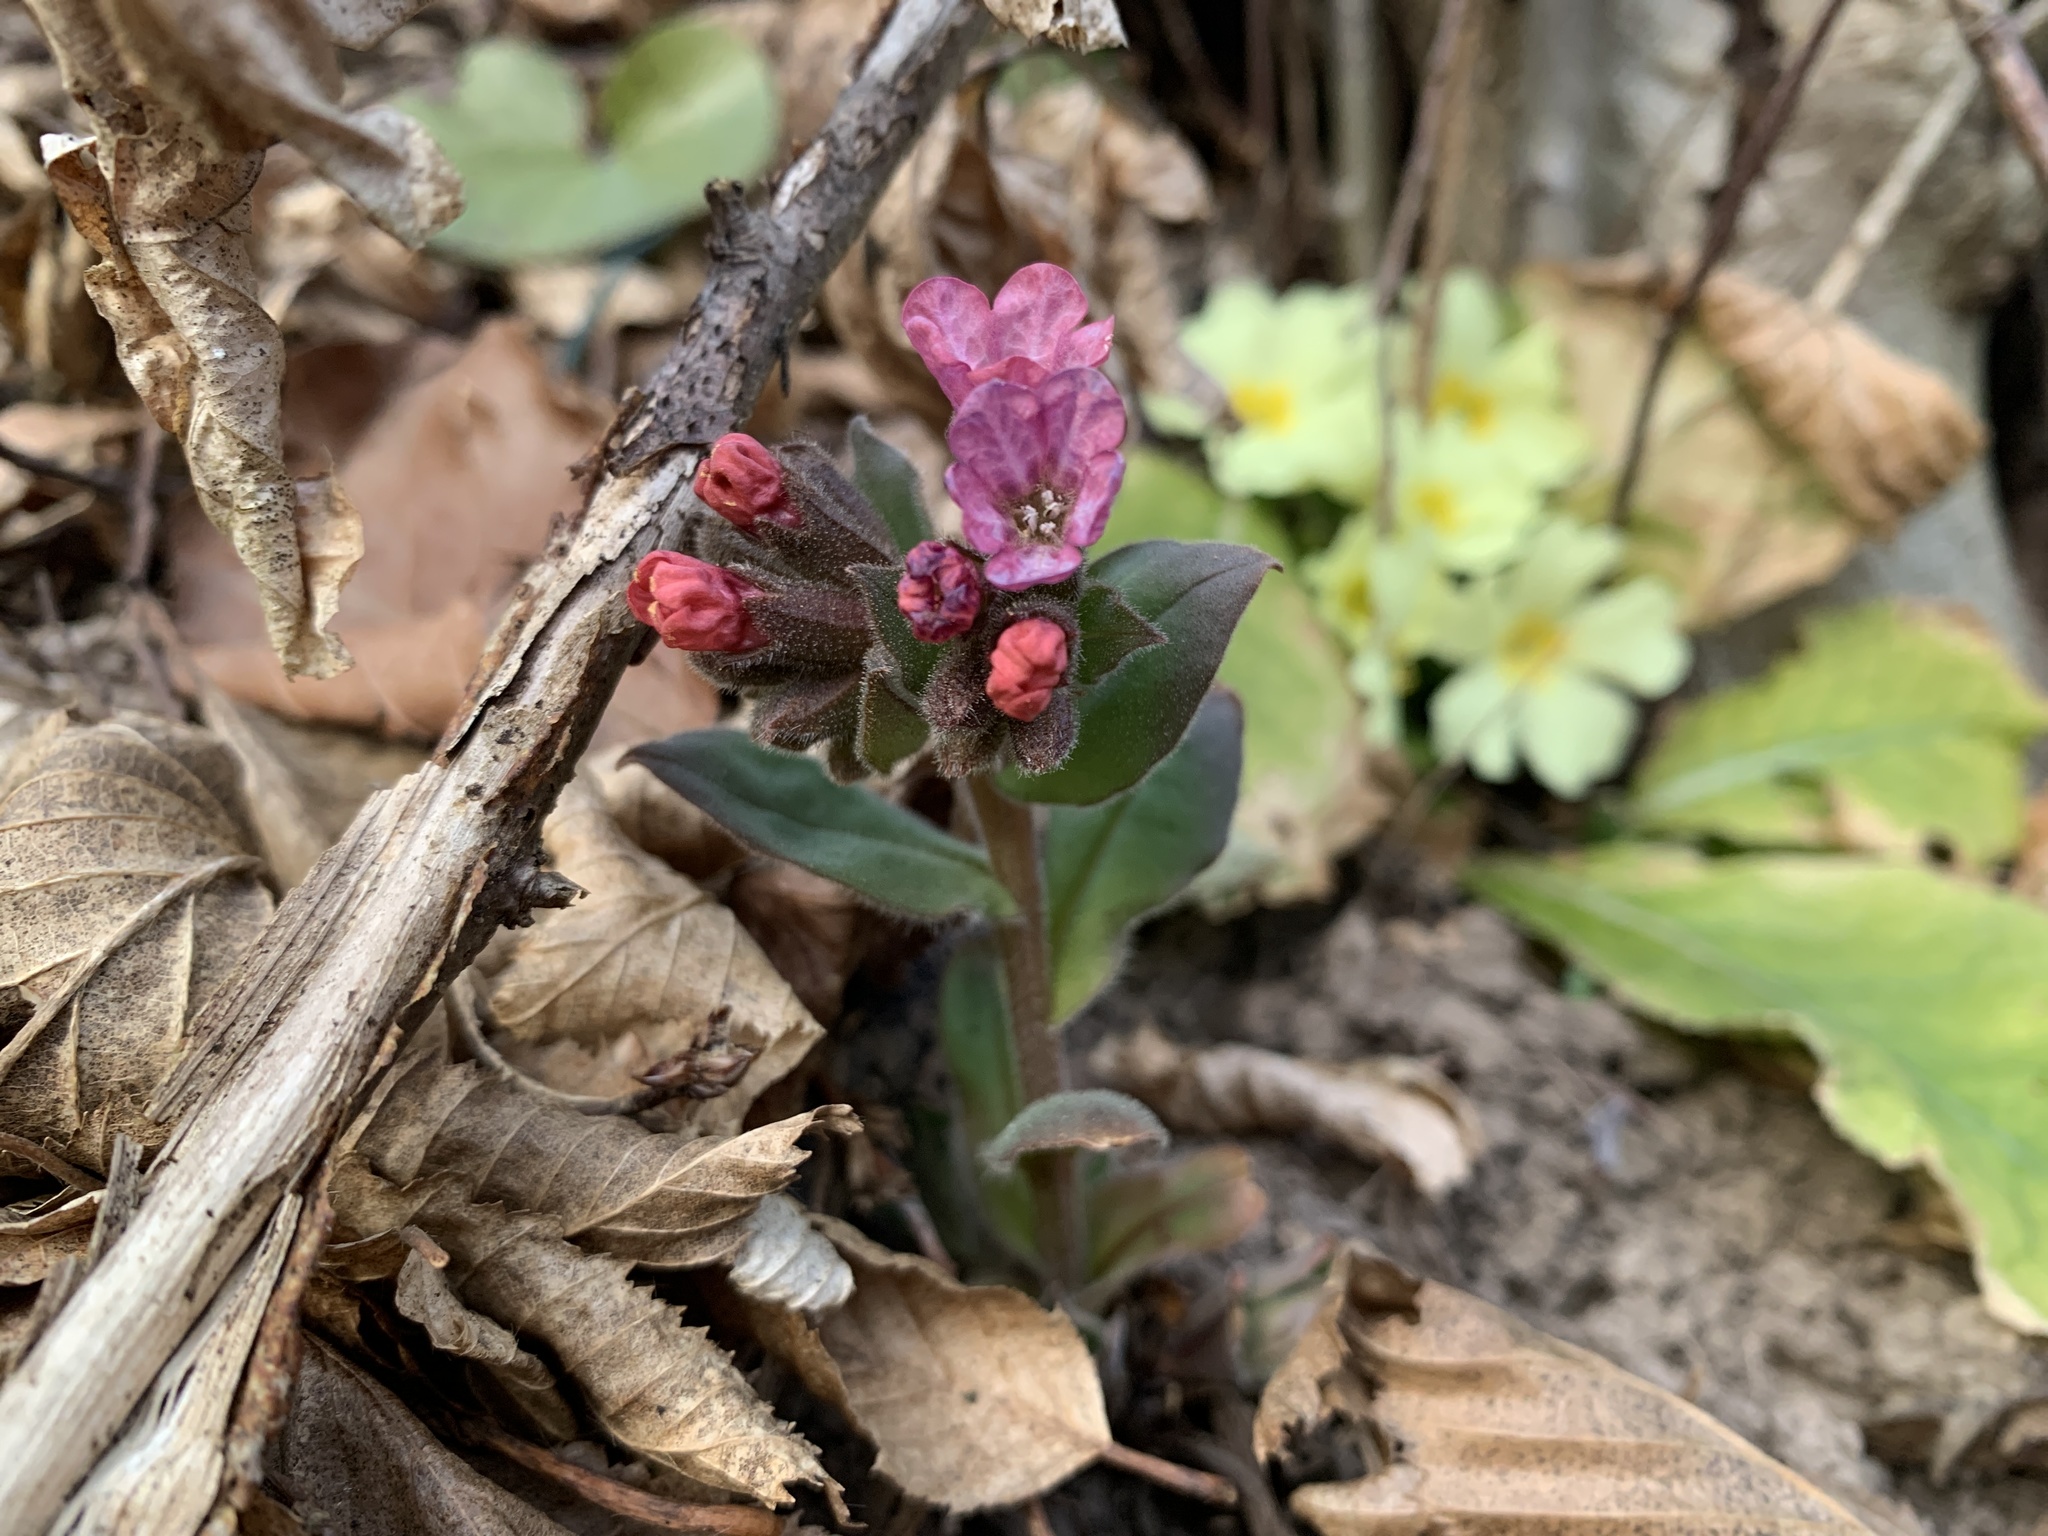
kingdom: Plantae
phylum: Tracheophyta
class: Magnoliopsida
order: Boraginales
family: Boraginaceae
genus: Pulmonaria
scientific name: Pulmonaria mollis
